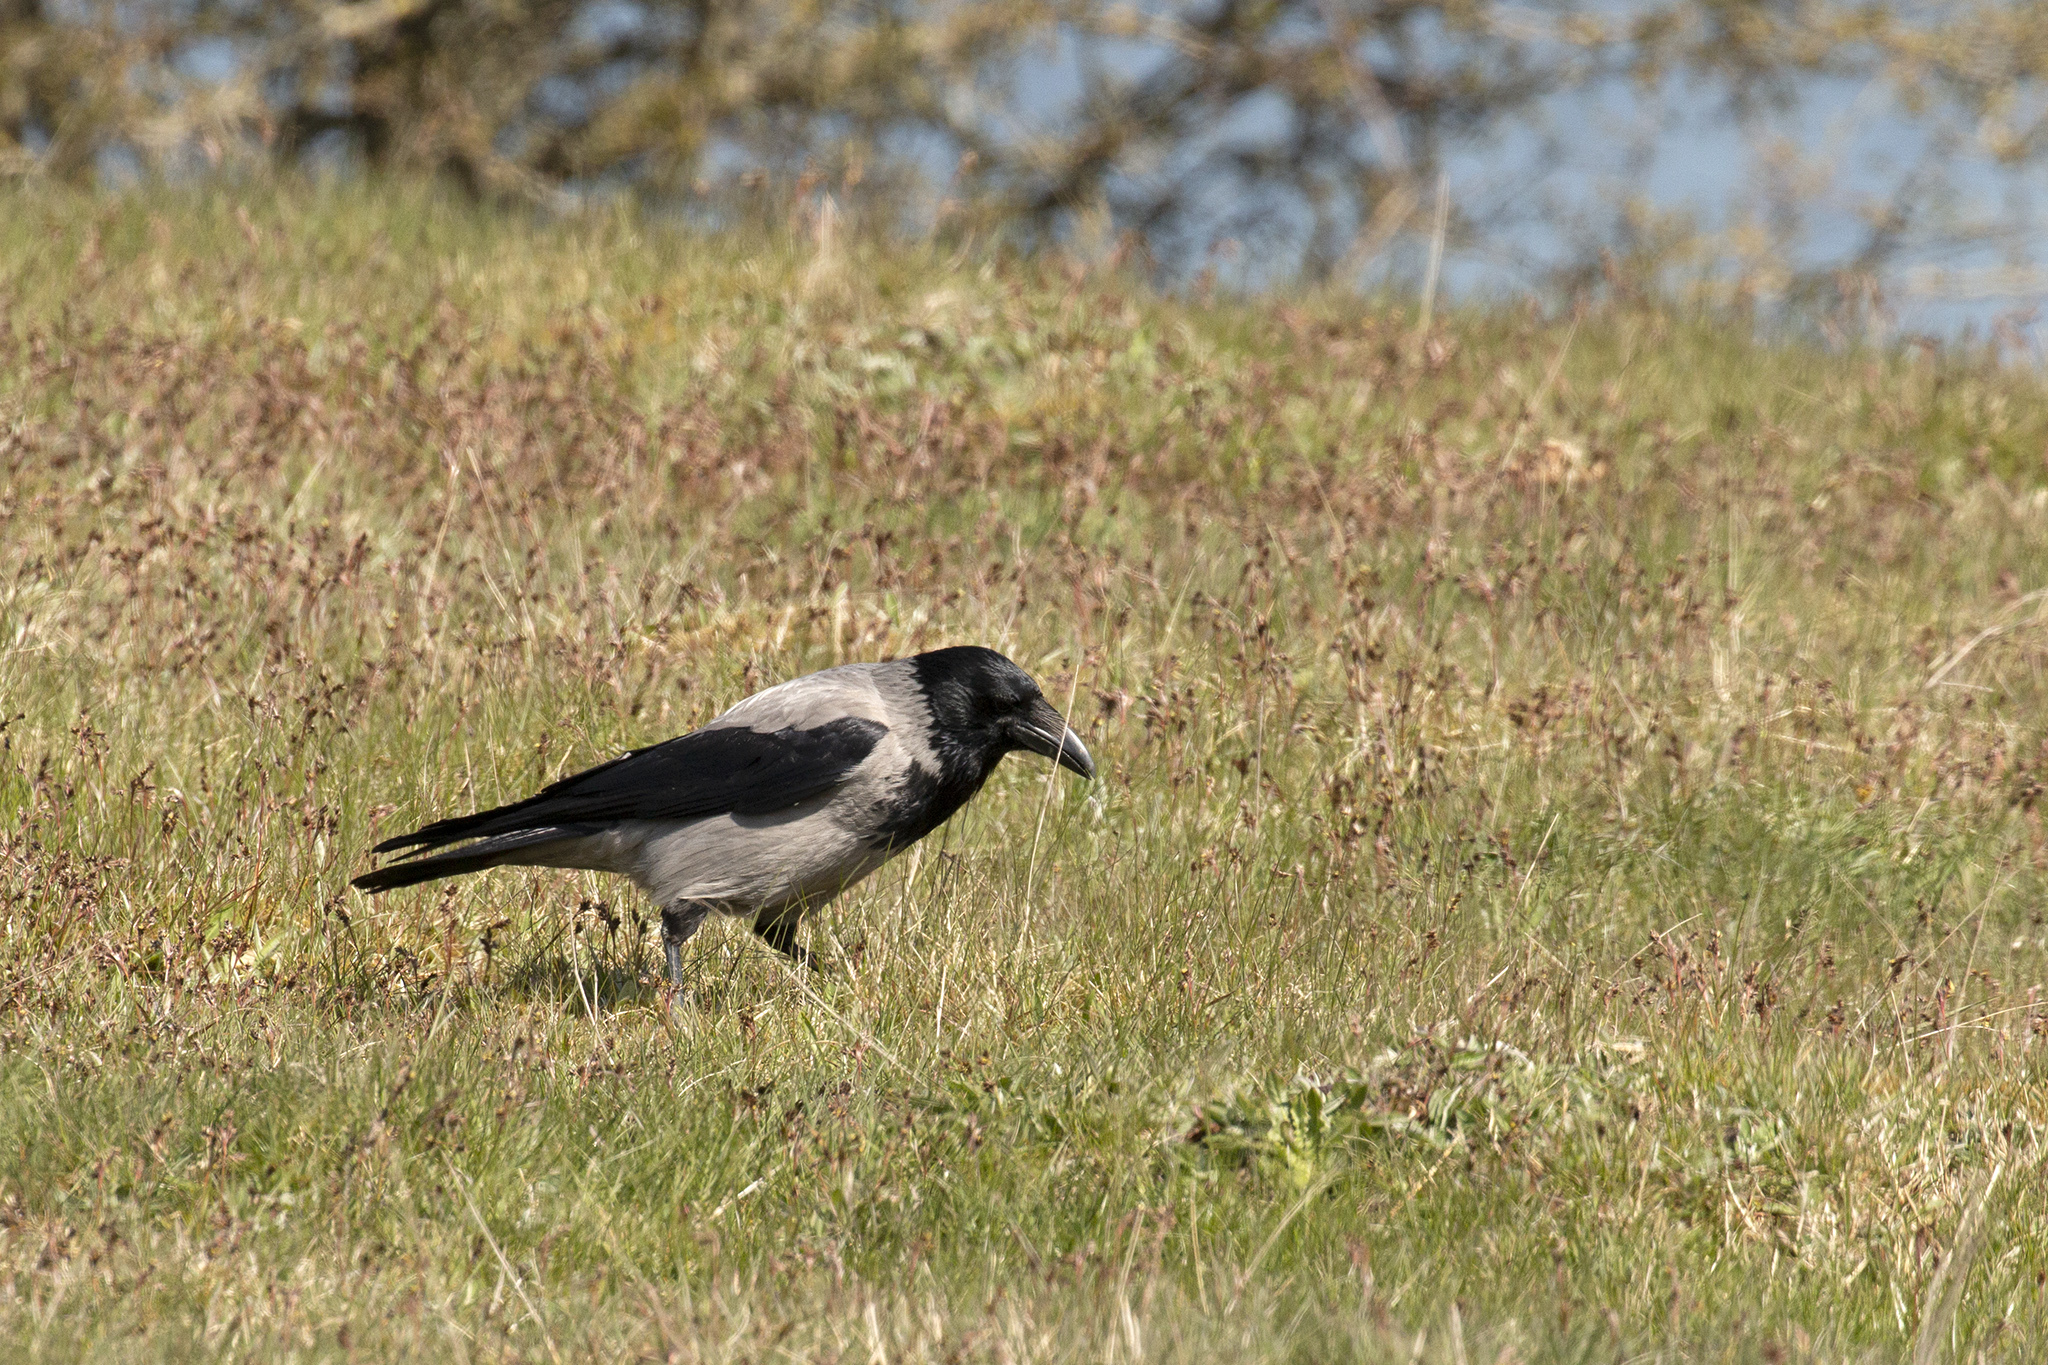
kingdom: Animalia
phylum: Chordata
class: Aves
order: Passeriformes
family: Corvidae
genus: Corvus
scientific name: Corvus cornix
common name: Hooded crow
